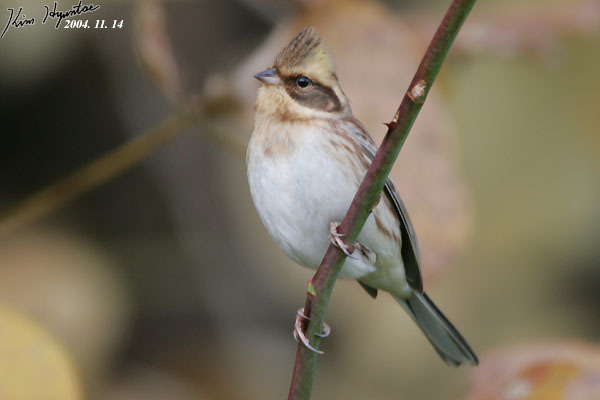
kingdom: Animalia
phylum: Chordata
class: Aves
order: Passeriformes
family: Emberizidae
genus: Emberiza
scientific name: Emberiza elegans
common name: Yellow-throated bunting
